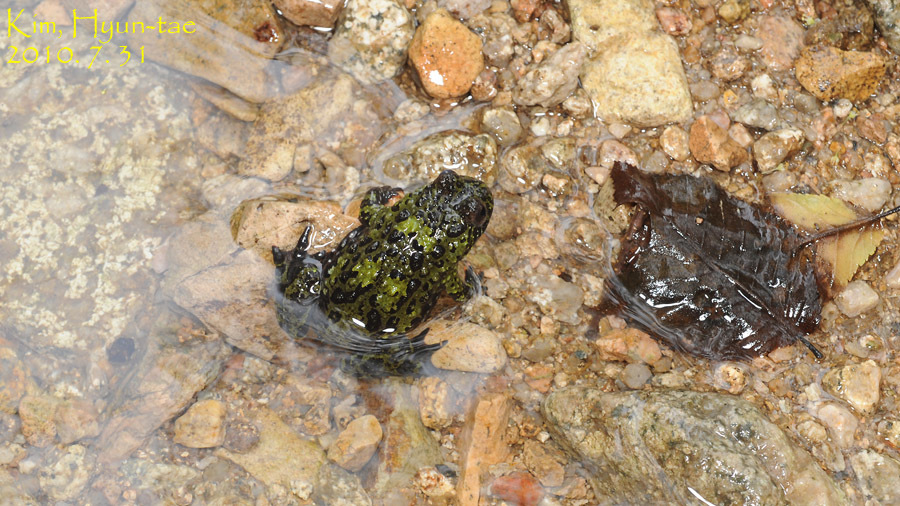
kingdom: Animalia
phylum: Chordata
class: Amphibia
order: Anura
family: Bombinatoridae
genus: Bombina
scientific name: Bombina orientalis
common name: Oriental firebelly toad
